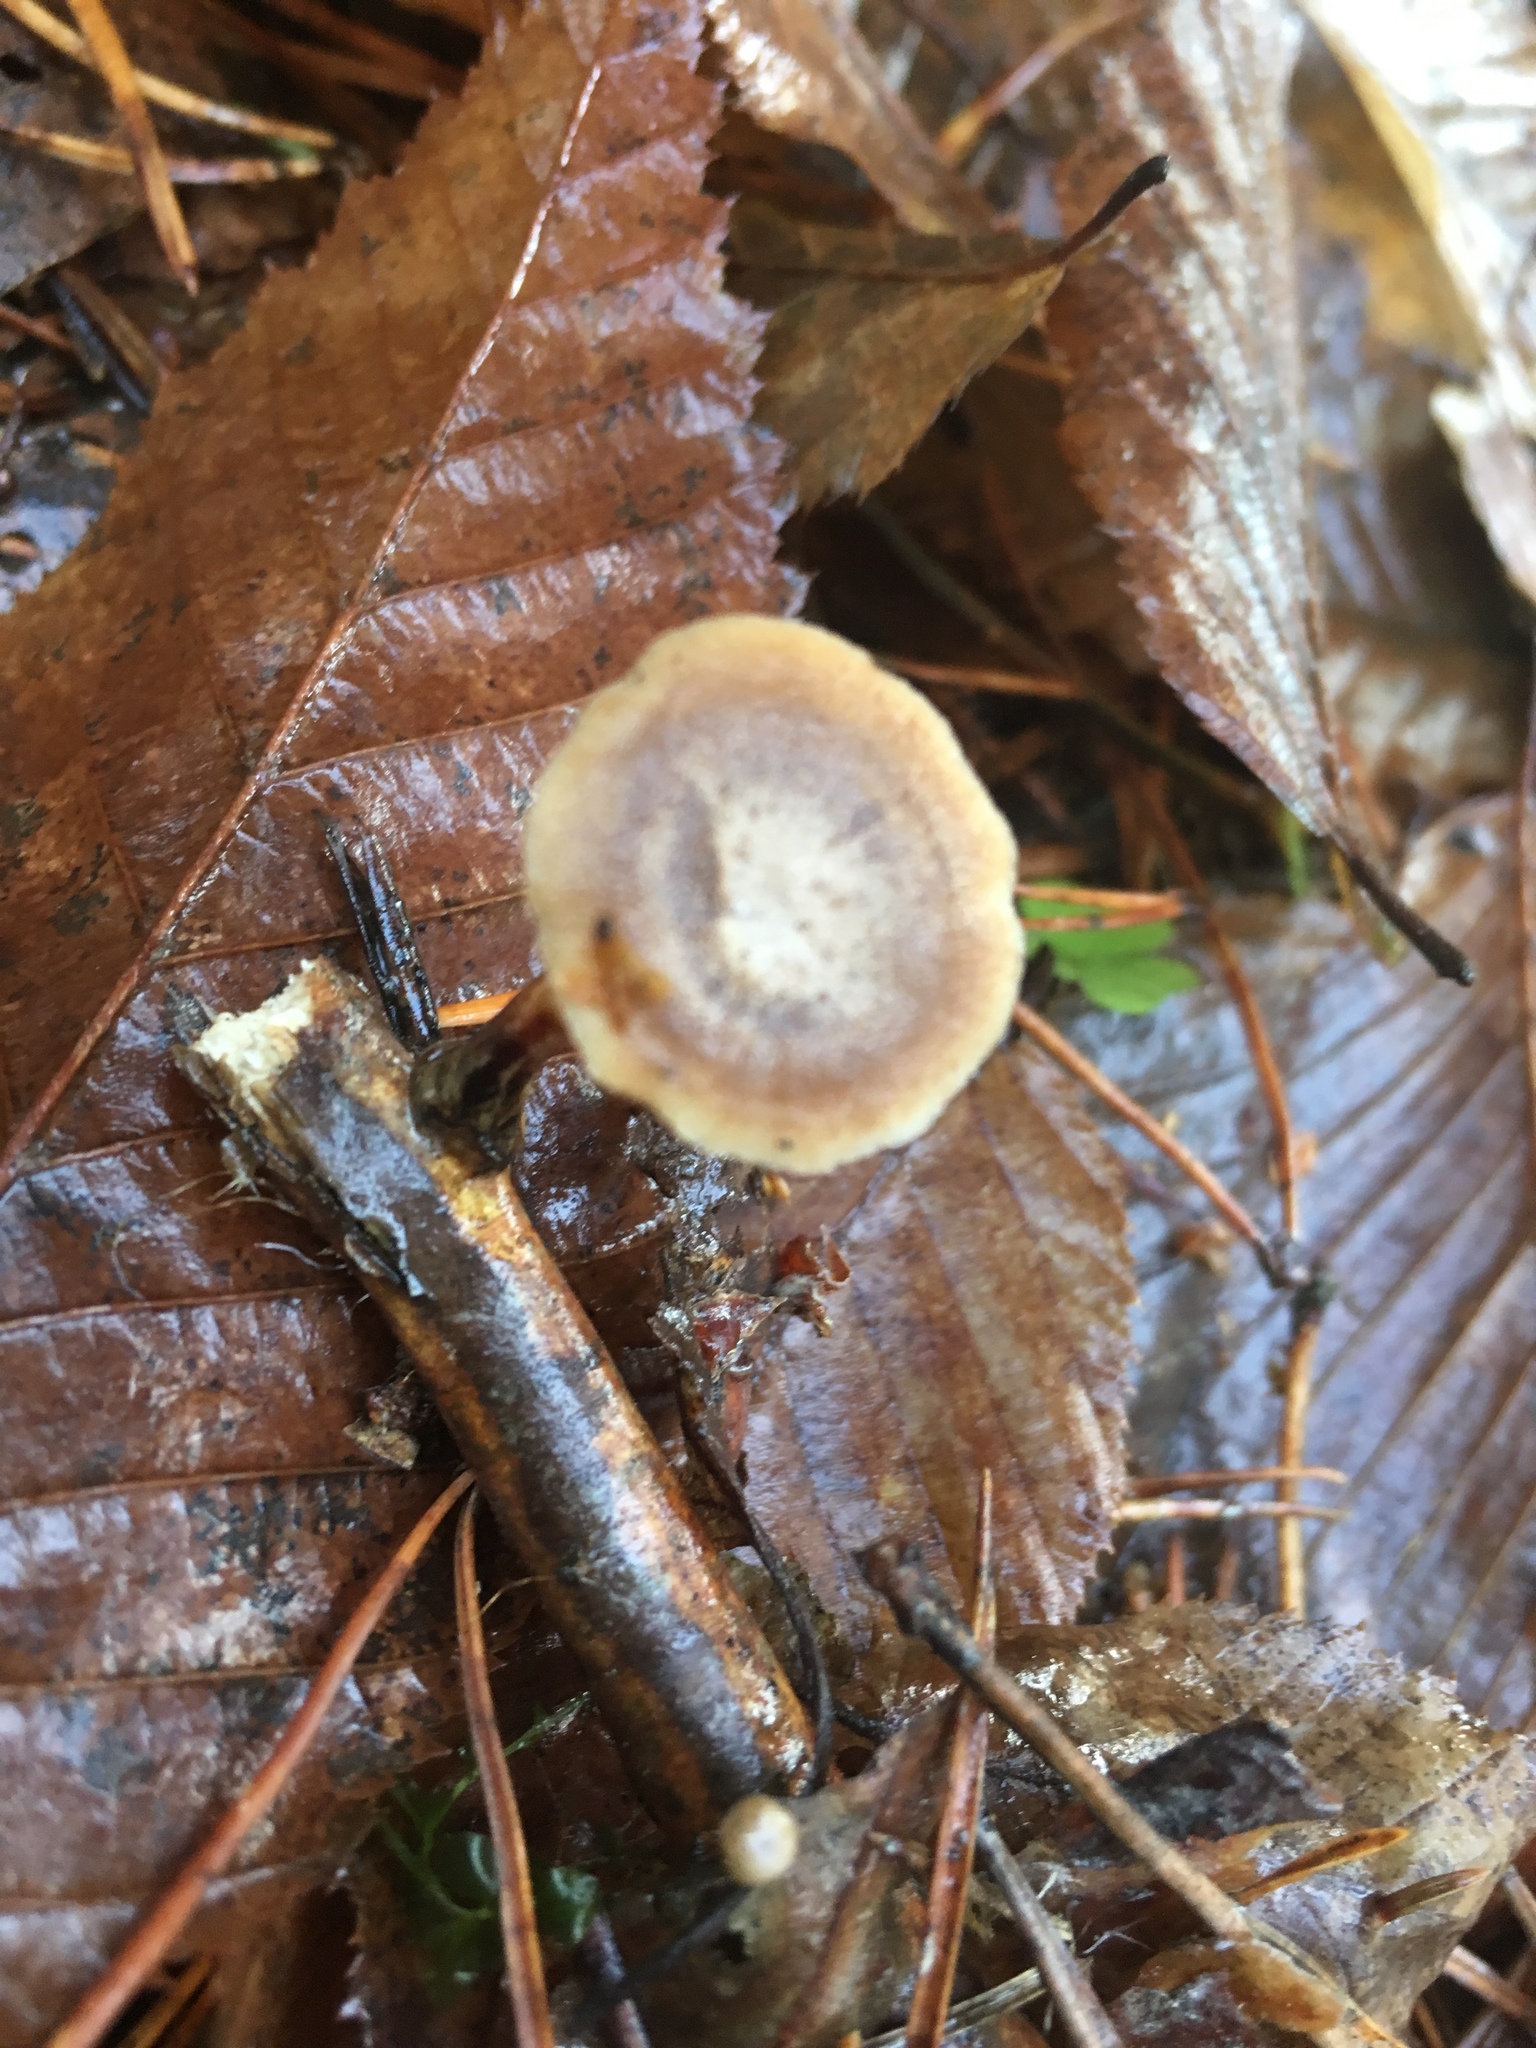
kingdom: Fungi
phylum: Basidiomycota
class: Agaricomycetes
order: Polyporales
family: Polyporaceae
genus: Lentinus
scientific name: Lentinus brumalis
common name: Winter polypore
